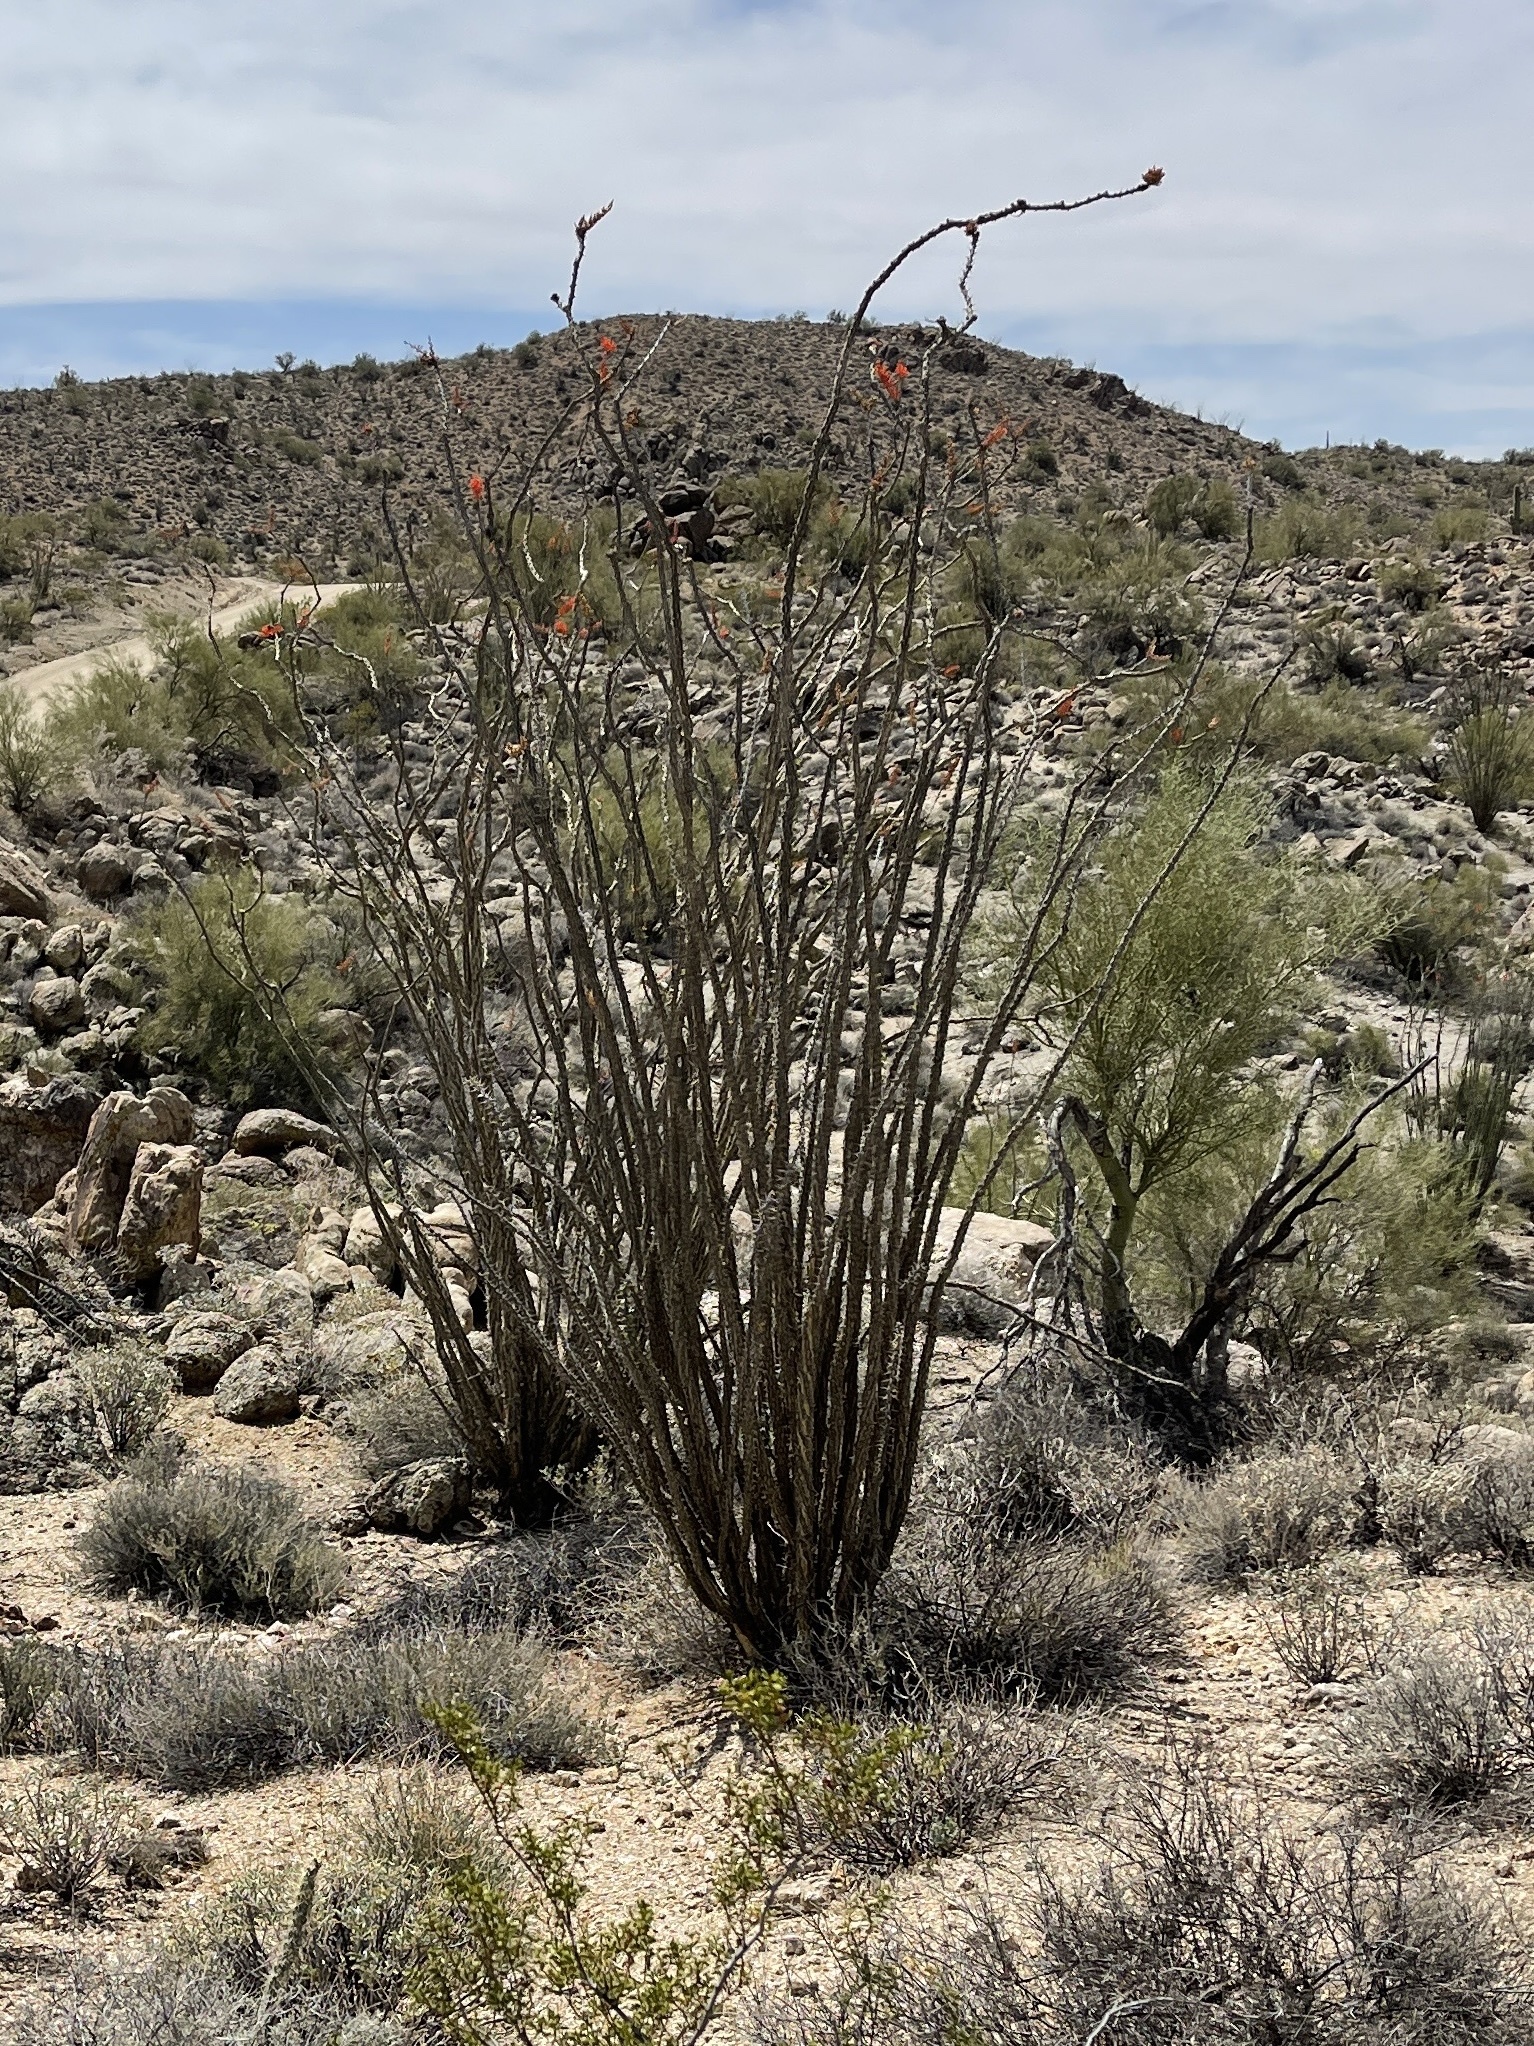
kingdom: Plantae
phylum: Tracheophyta
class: Magnoliopsida
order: Ericales
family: Fouquieriaceae
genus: Fouquieria
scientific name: Fouquieria splendens
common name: Vine-cactus
